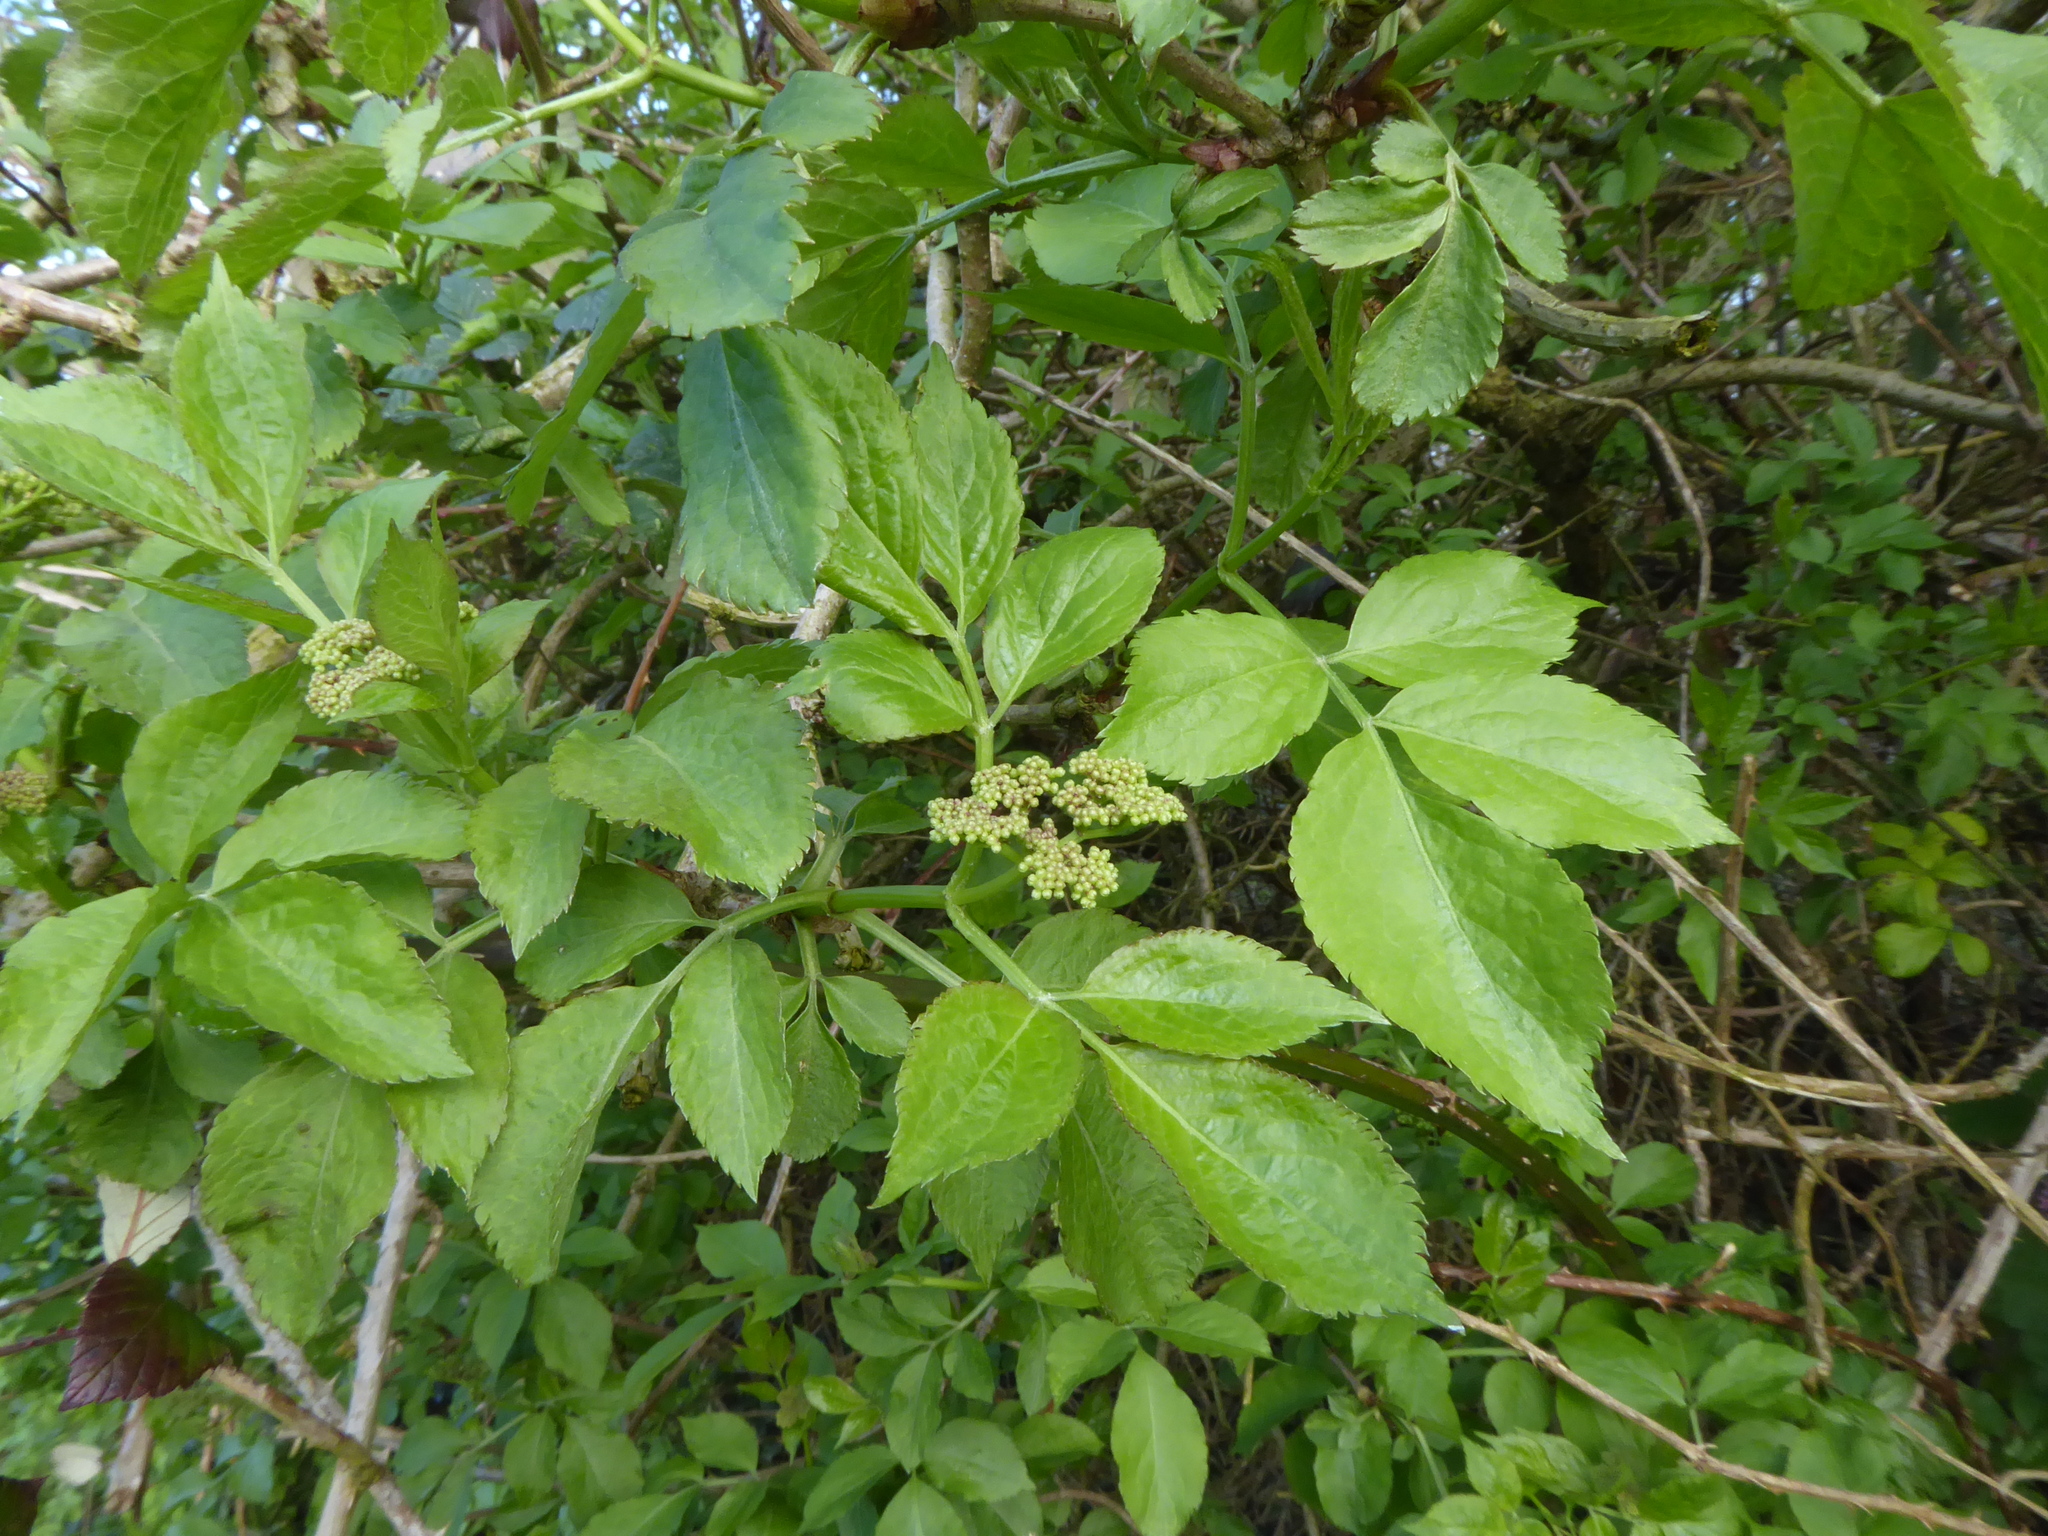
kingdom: Plantae
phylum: Tracheophyta
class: Magnoliopsida
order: Dipsacales
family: Viburnaceae
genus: Sambucus
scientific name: Sambucus nigra
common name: Elder
